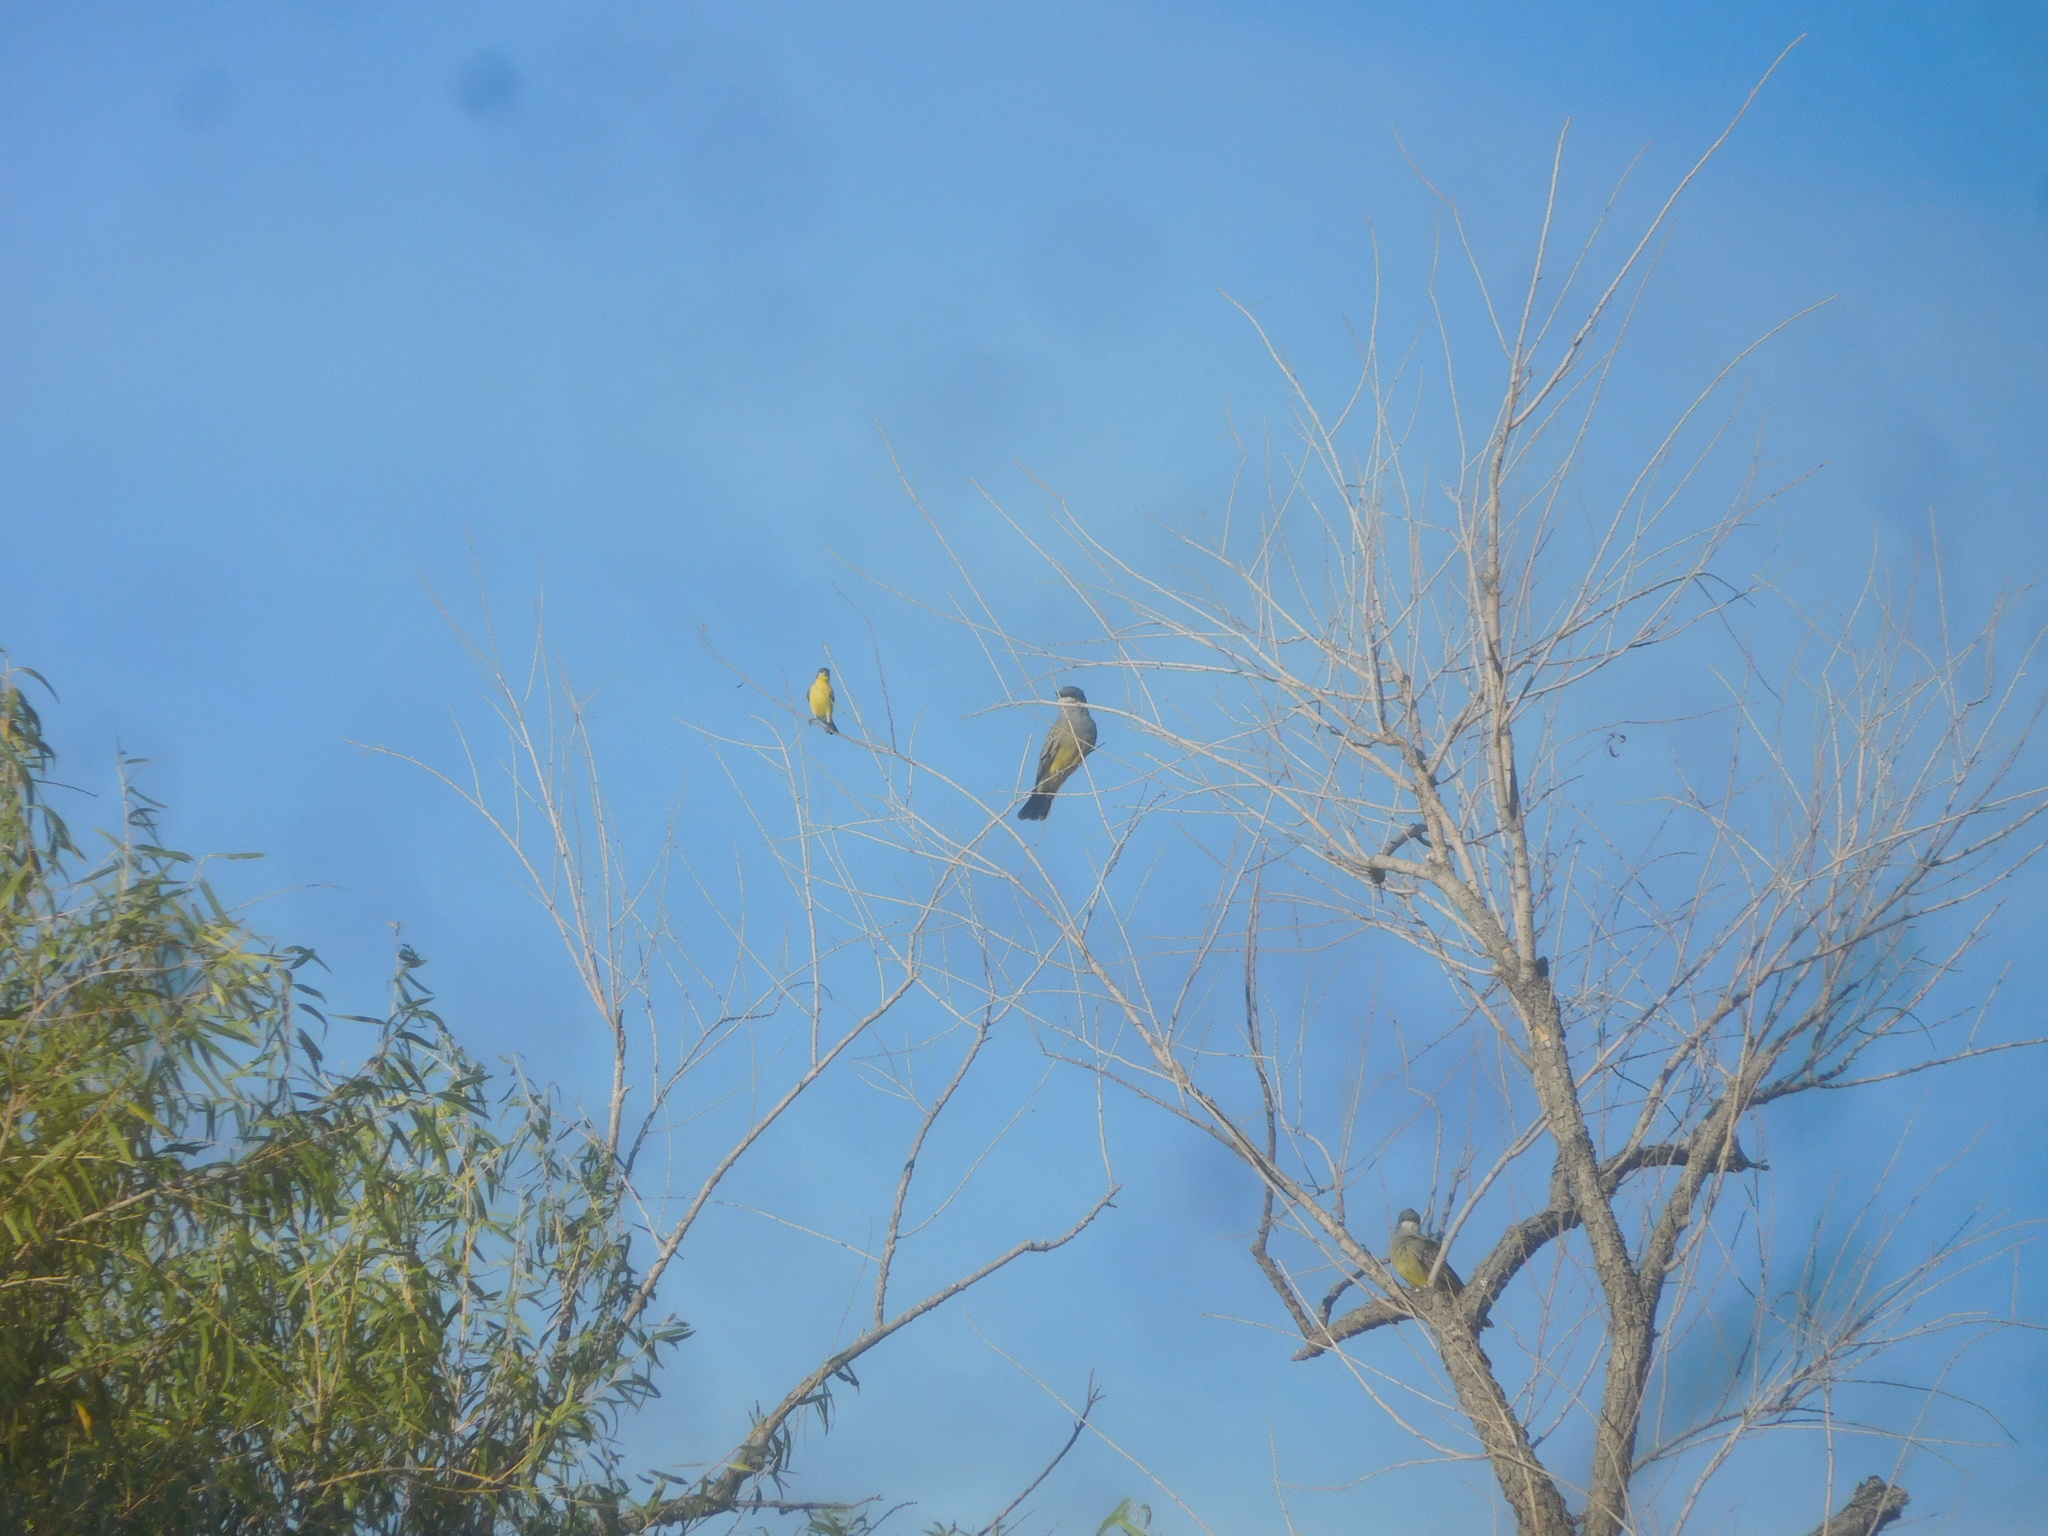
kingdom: Animalia
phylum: Chordata
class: Aves
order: Passeriformes
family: Fringillidae
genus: Spinus
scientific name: Spinus psaltria
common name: Lesser goldfinch
